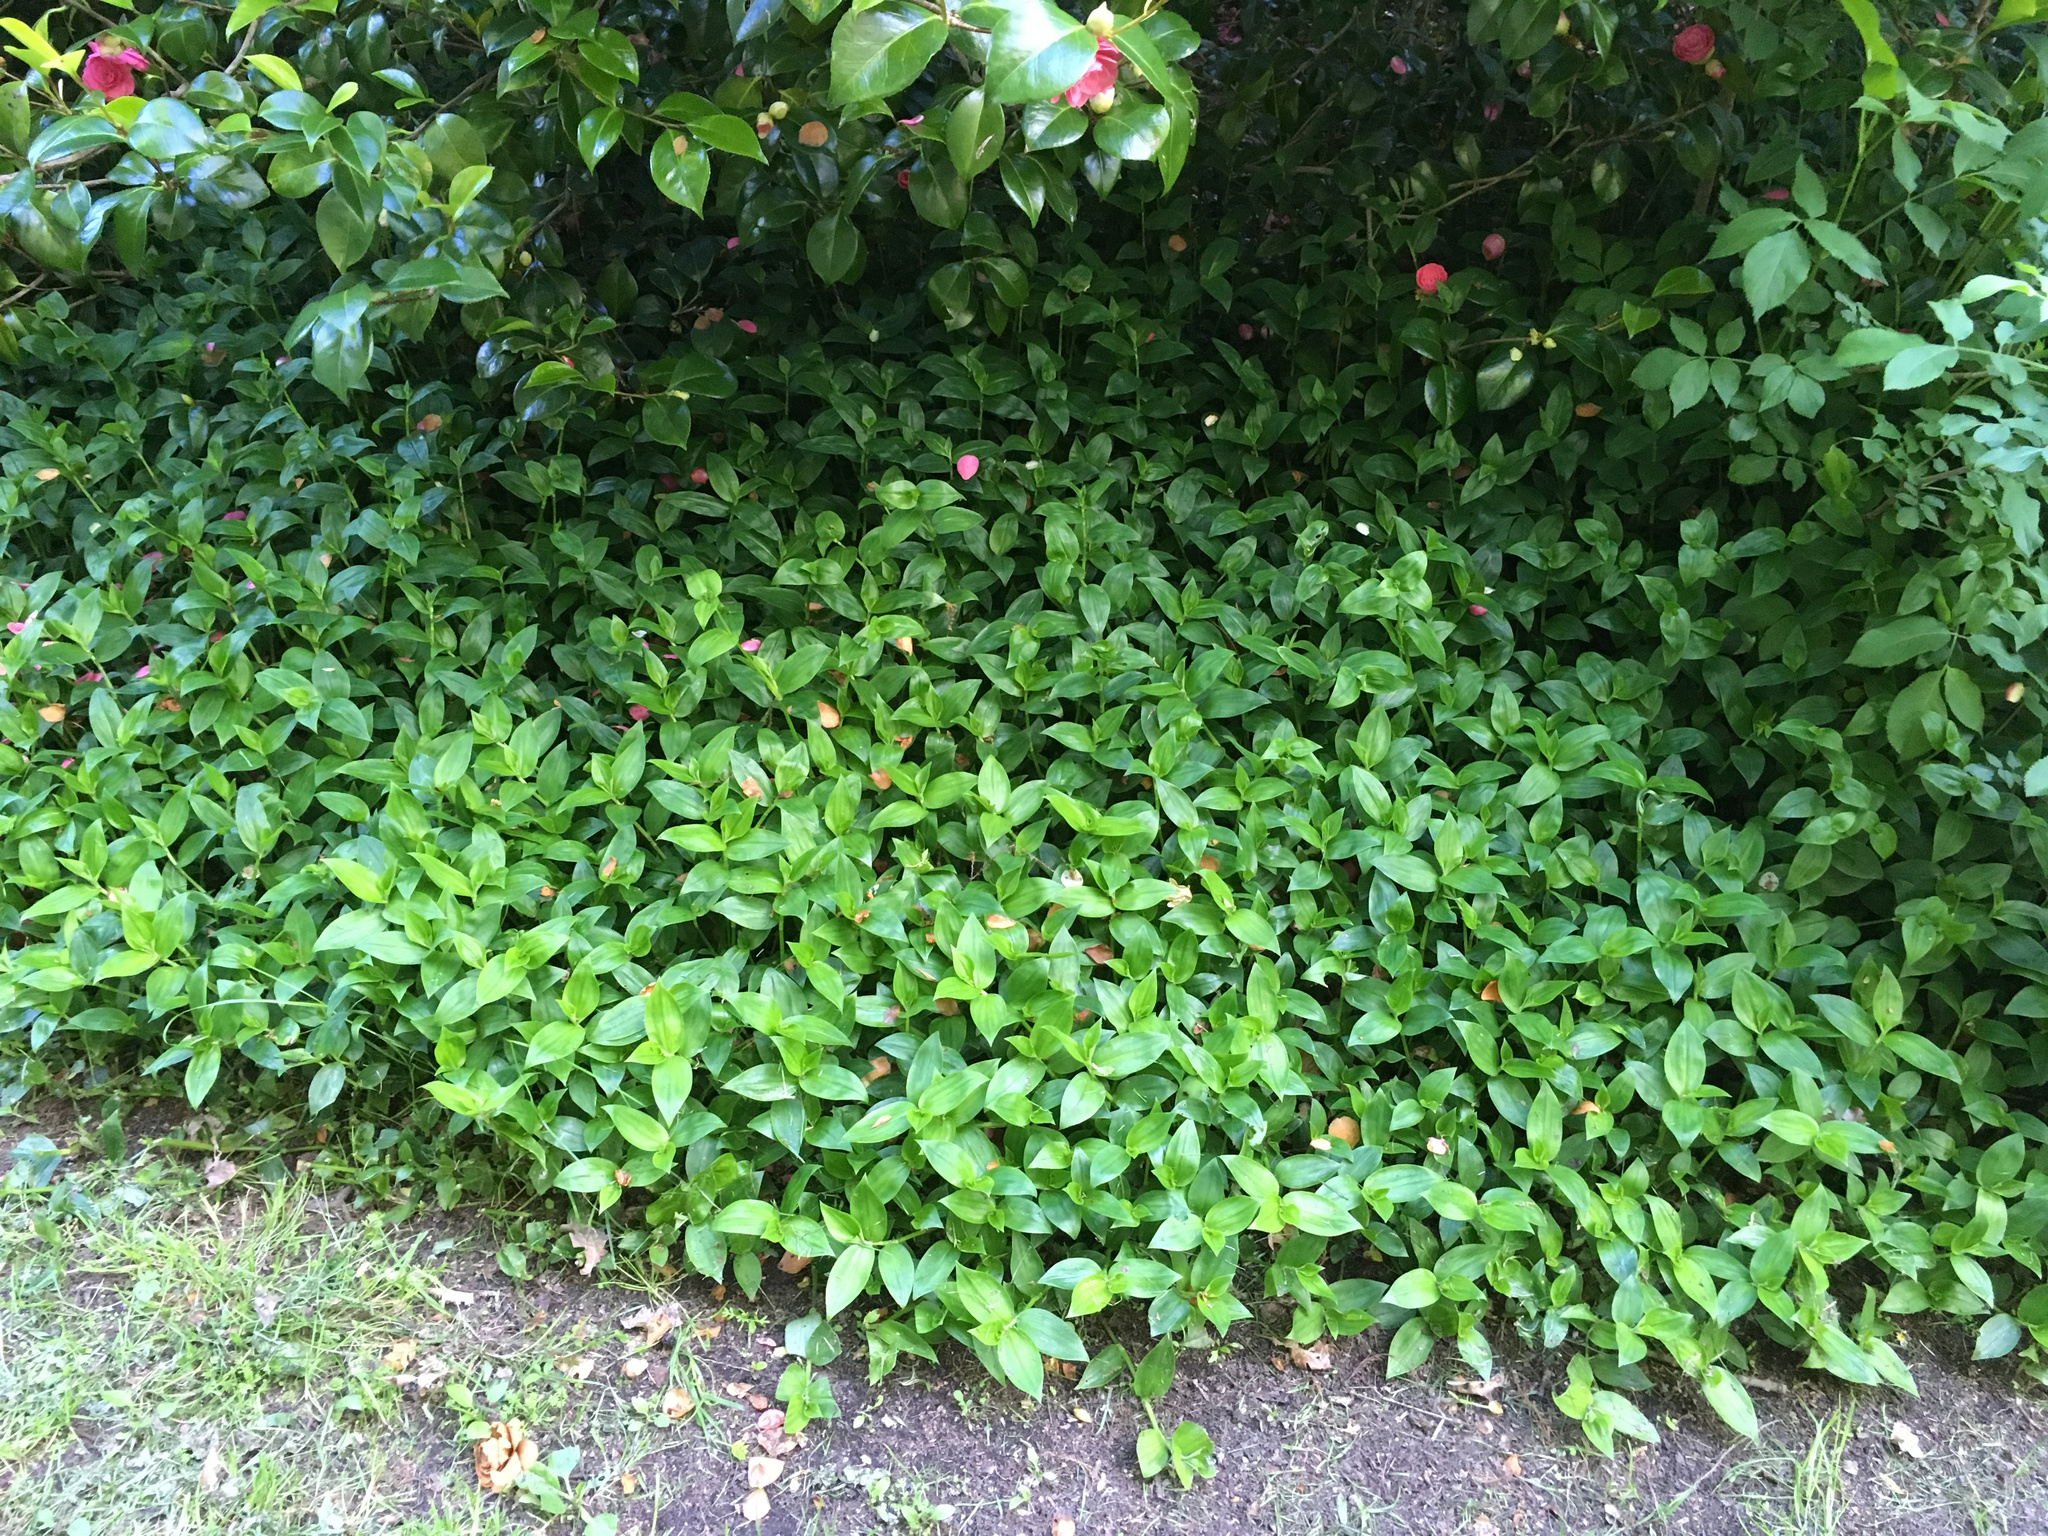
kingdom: Plantae
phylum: Tracheophyta
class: Liliopsida
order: Commelinales
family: Commelinaceae
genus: Tradescantia
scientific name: Tradescantia fluminensis
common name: Wandering-jew
